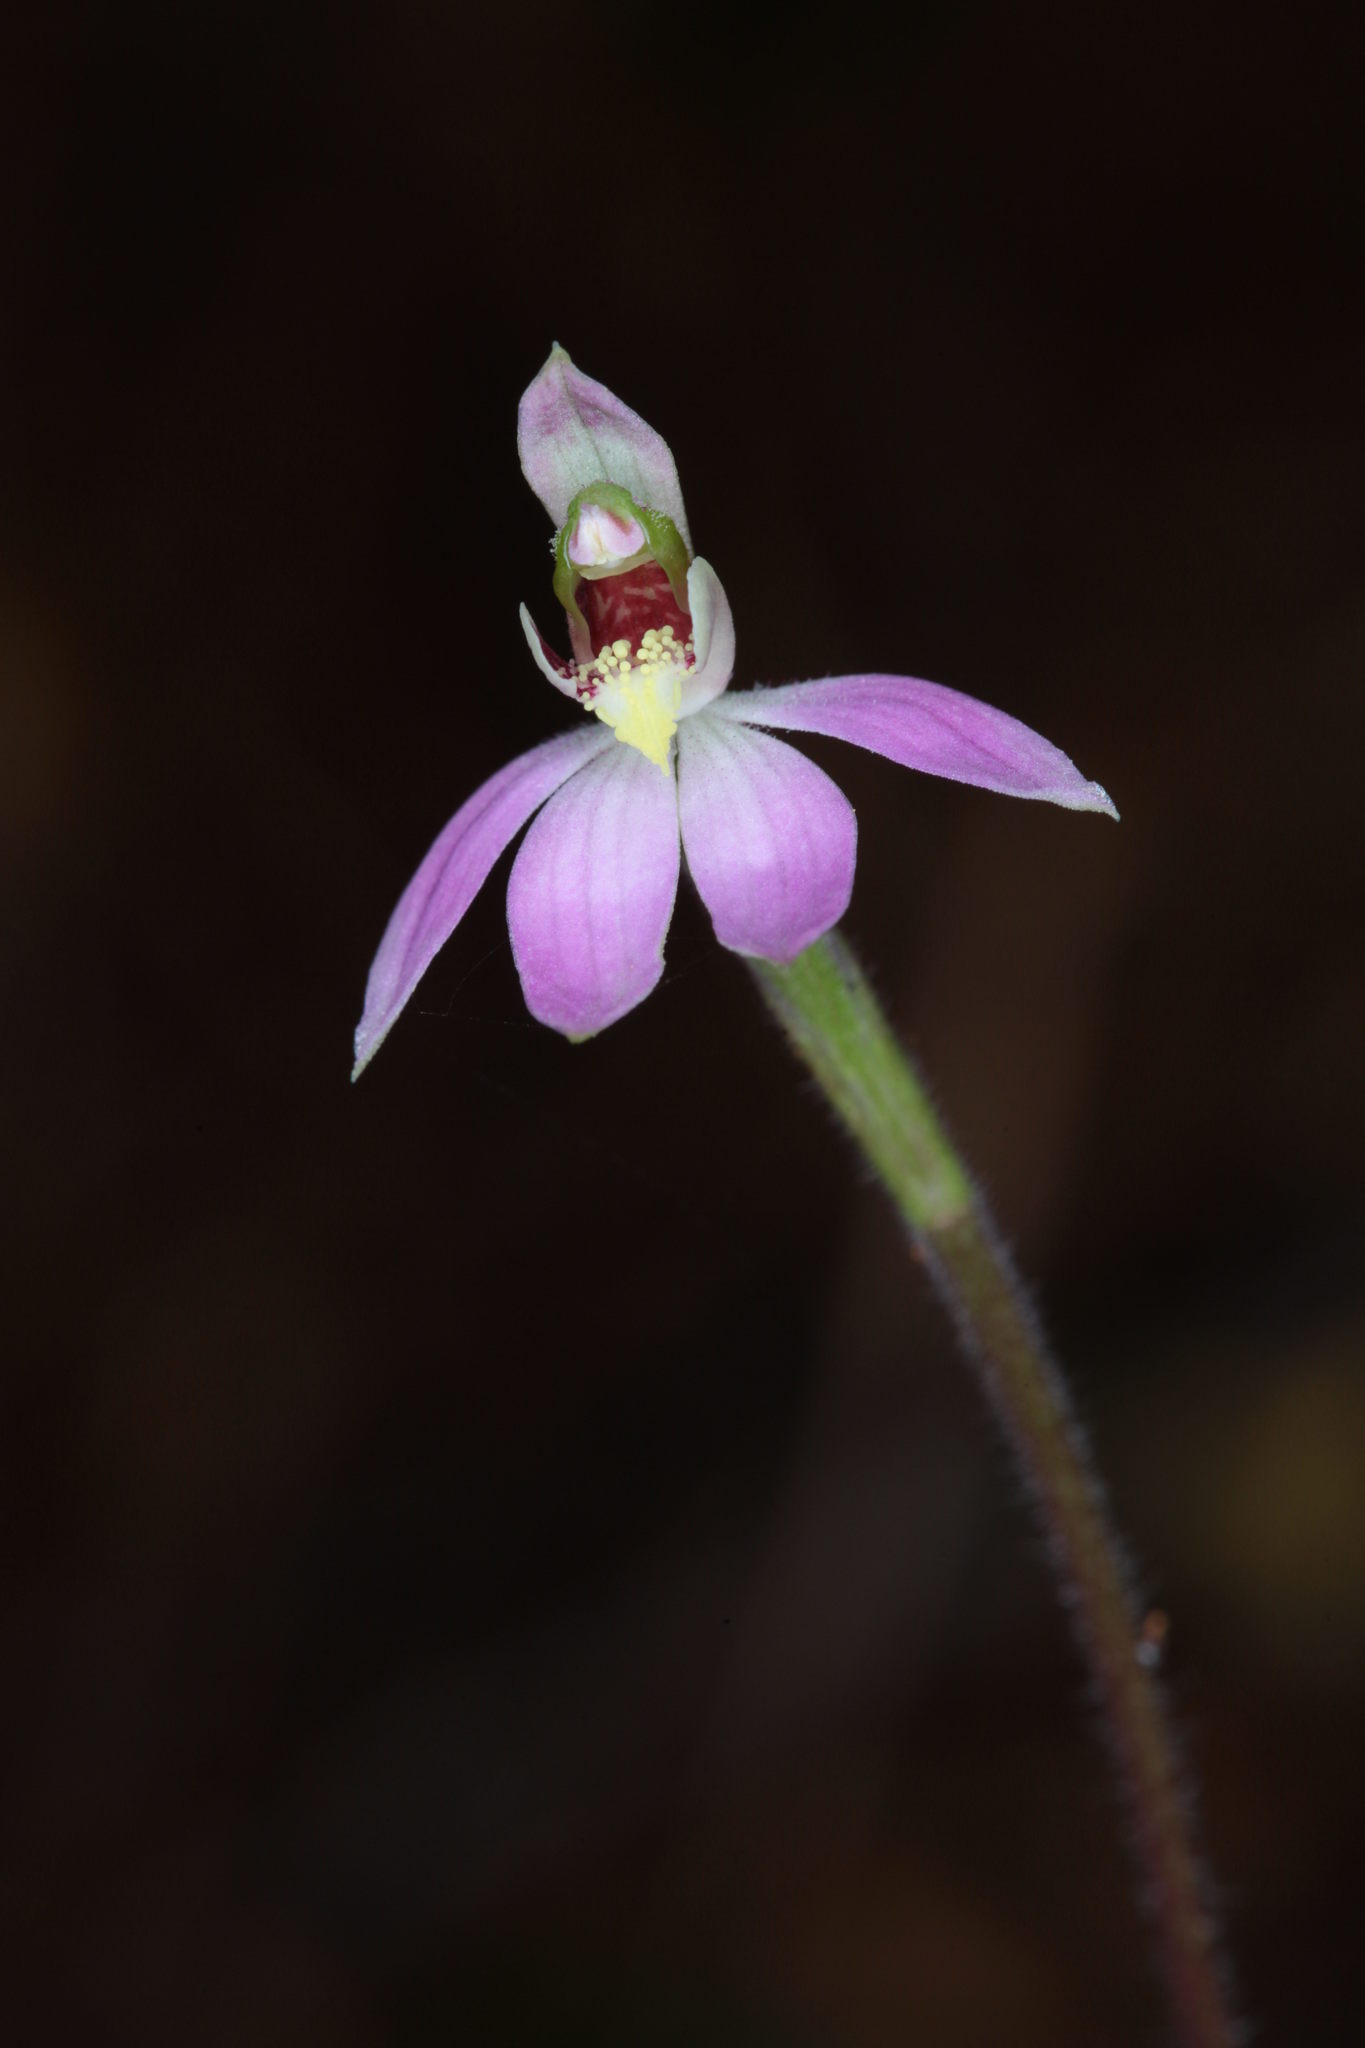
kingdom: Plantae
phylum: Tracheophyta
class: Liliopsida
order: Asparagales
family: Orchidaceae
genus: Caladenia
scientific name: Caladenia variegata
